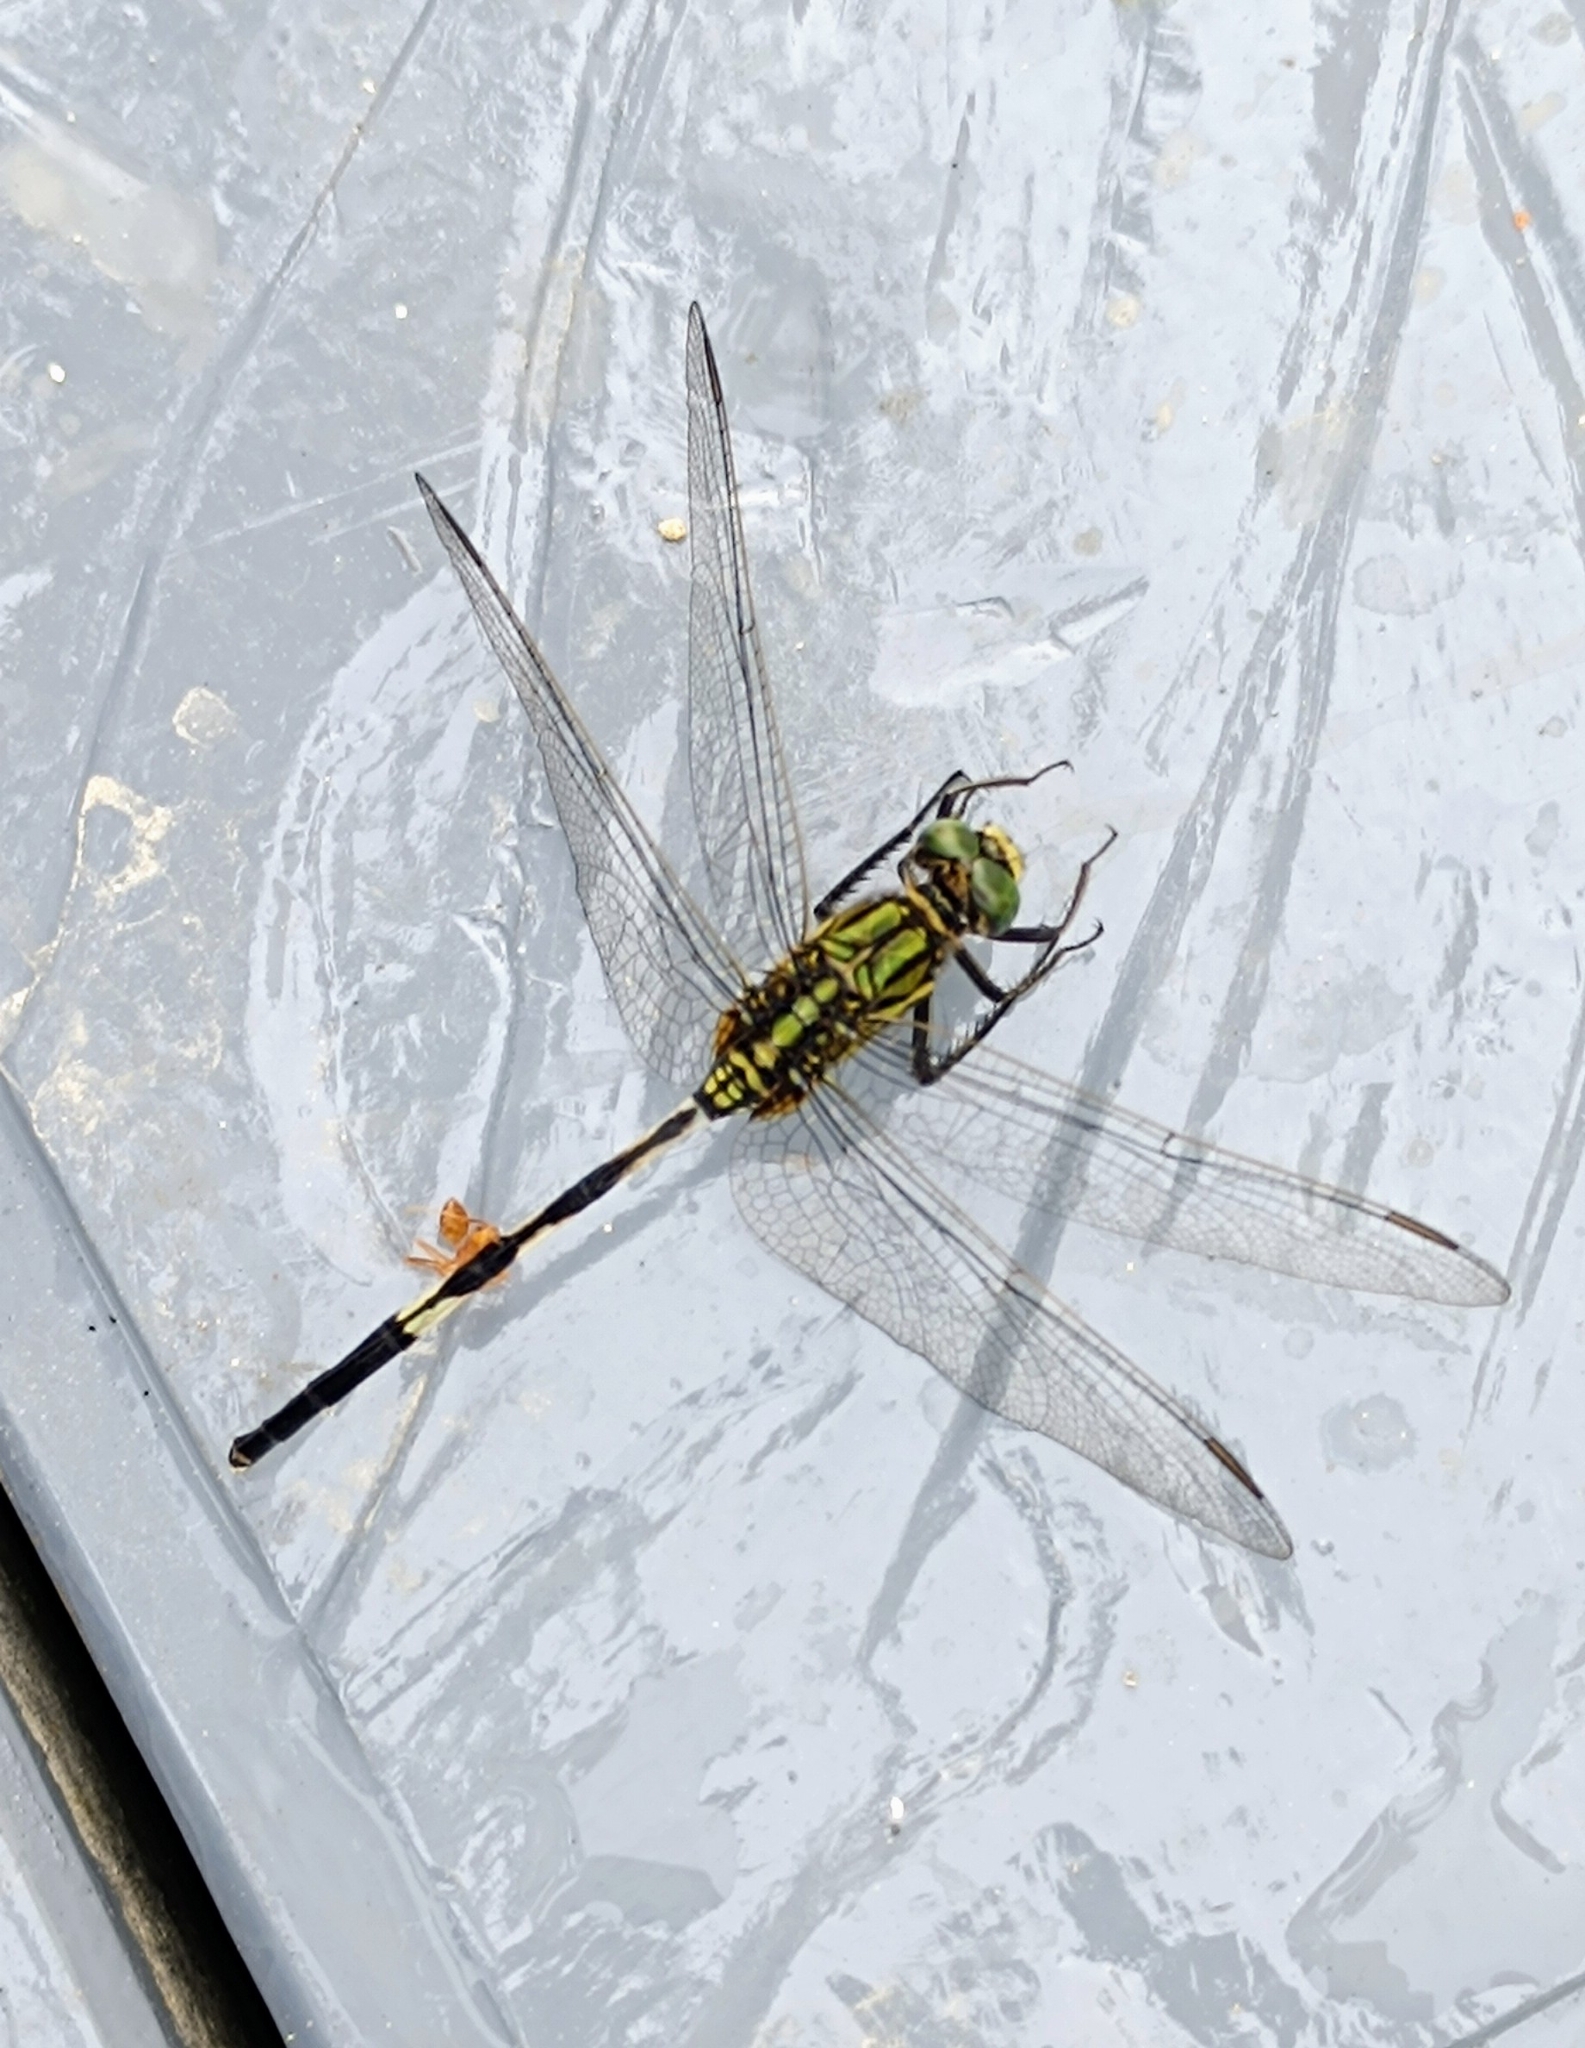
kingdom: Animalia
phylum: Arthropoda
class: Insecta
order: Odonata
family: Libellulidae
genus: Orthetrum
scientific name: Orthetrum sabina
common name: Slender skimmer
